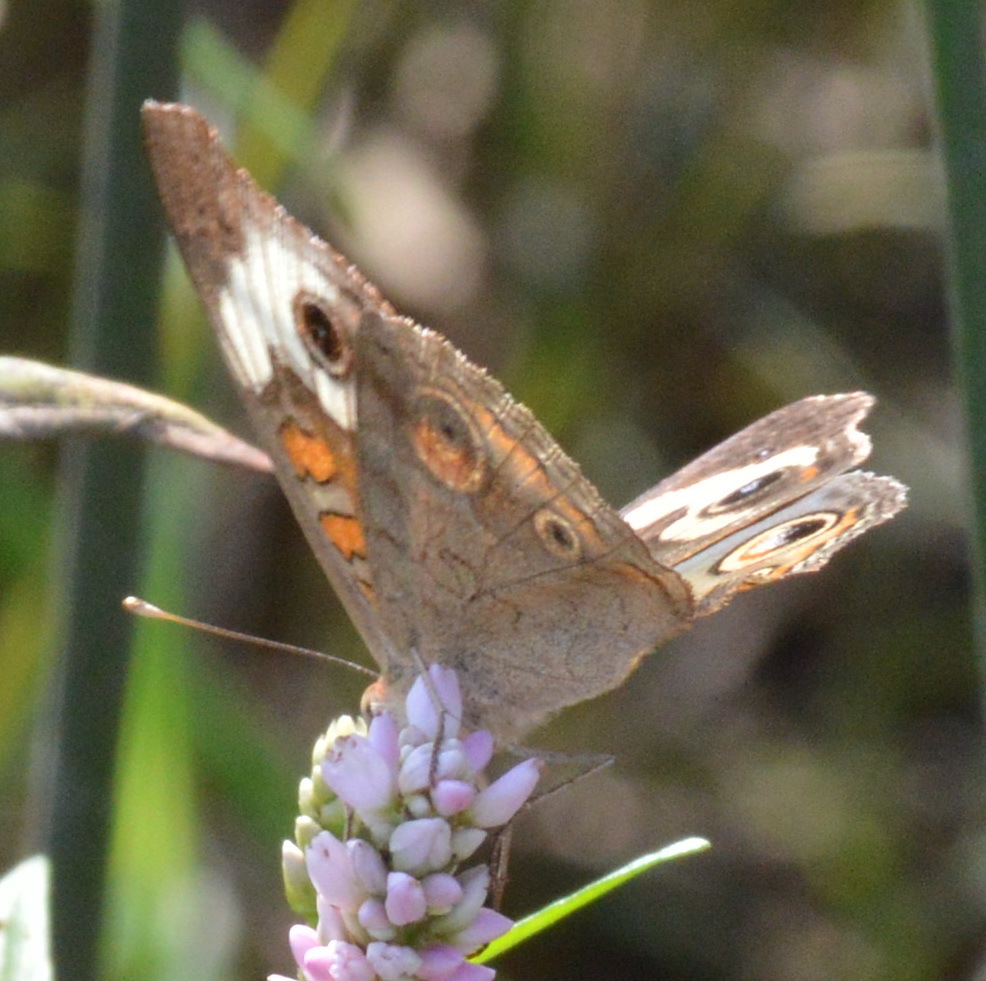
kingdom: Animalia
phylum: Arthropoda
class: Insecta
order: Lepidoptera
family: Nymphalidae
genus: Junonia
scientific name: Junonia coenia
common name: Common buckeye
